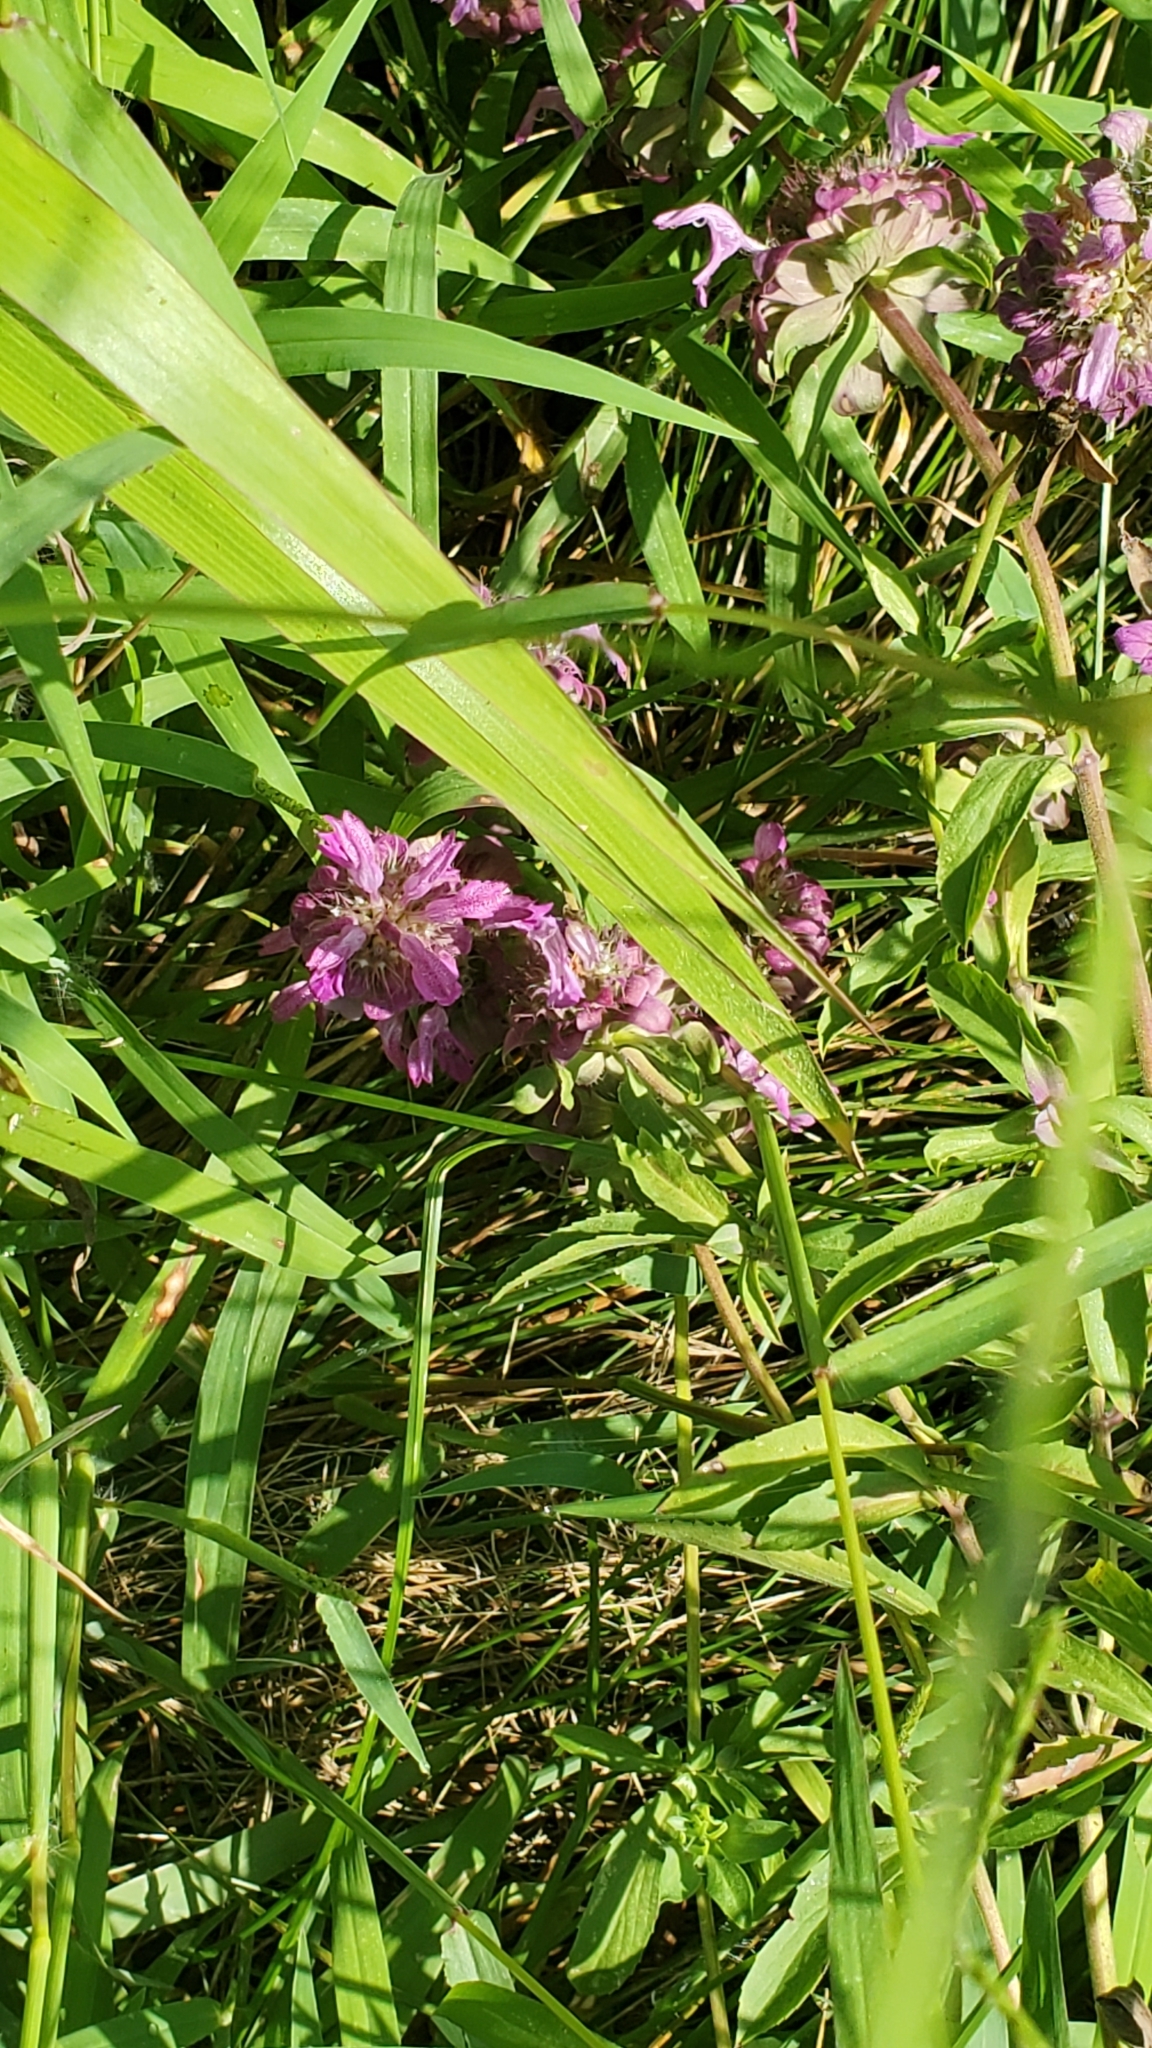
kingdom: Plantae
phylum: Tracheophyta
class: Magnoliopsida
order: Lamiales
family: Lamiaceae
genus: Monarda
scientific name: Monarda citriodora
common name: Lemon beebalm
